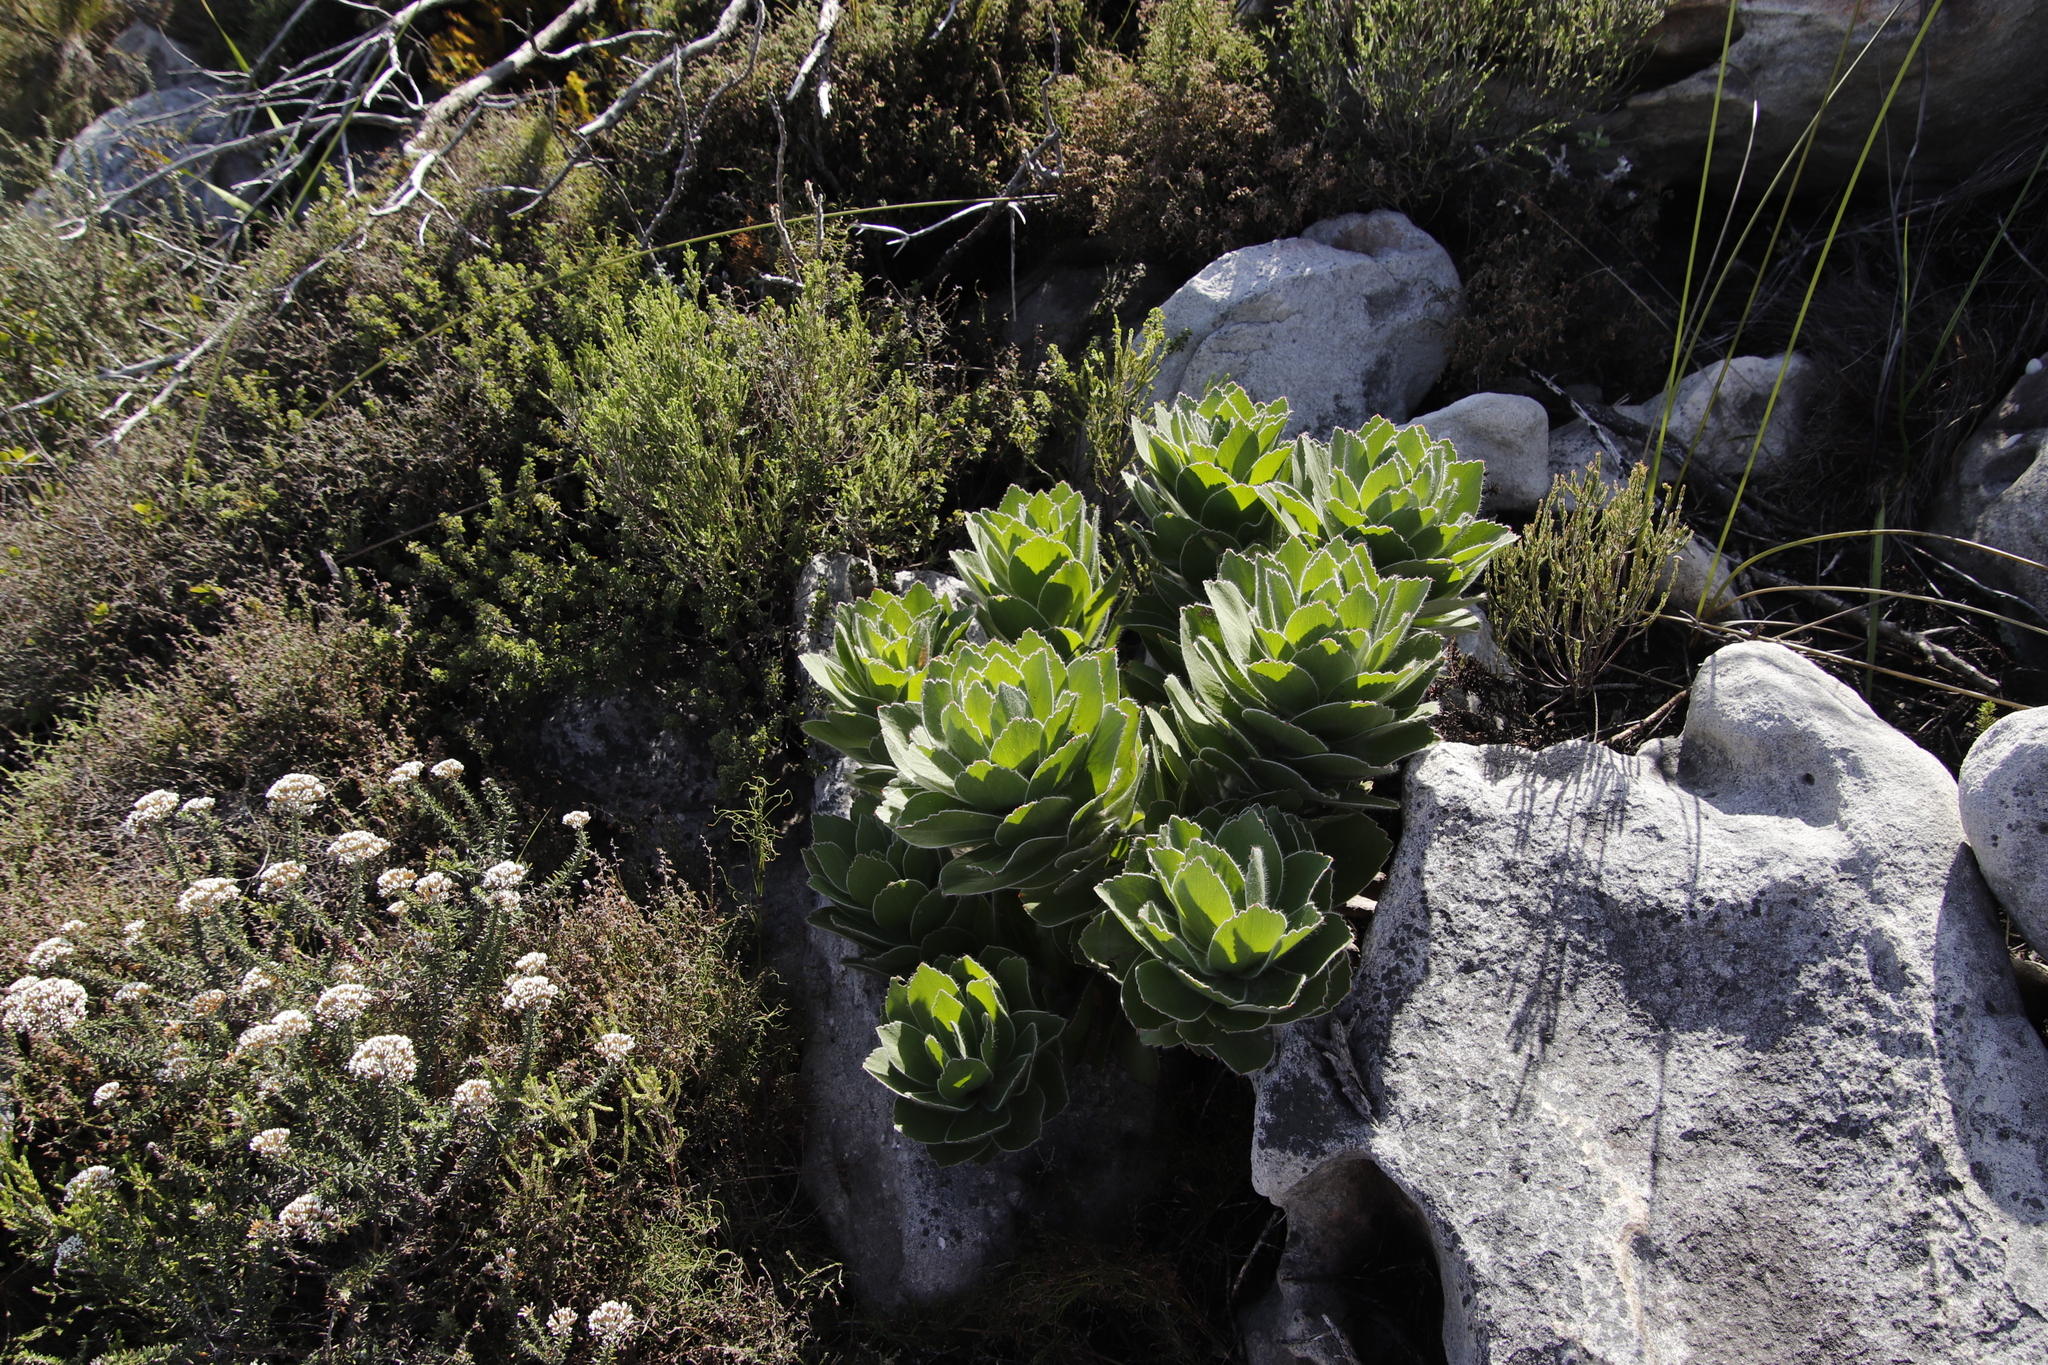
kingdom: Plantae
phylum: Tracheophyta
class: Magnoliopsida
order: Proteales
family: Proteaceae
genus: Leucospermum
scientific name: Leucospermum conocarpodendron
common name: Tree pincushion
